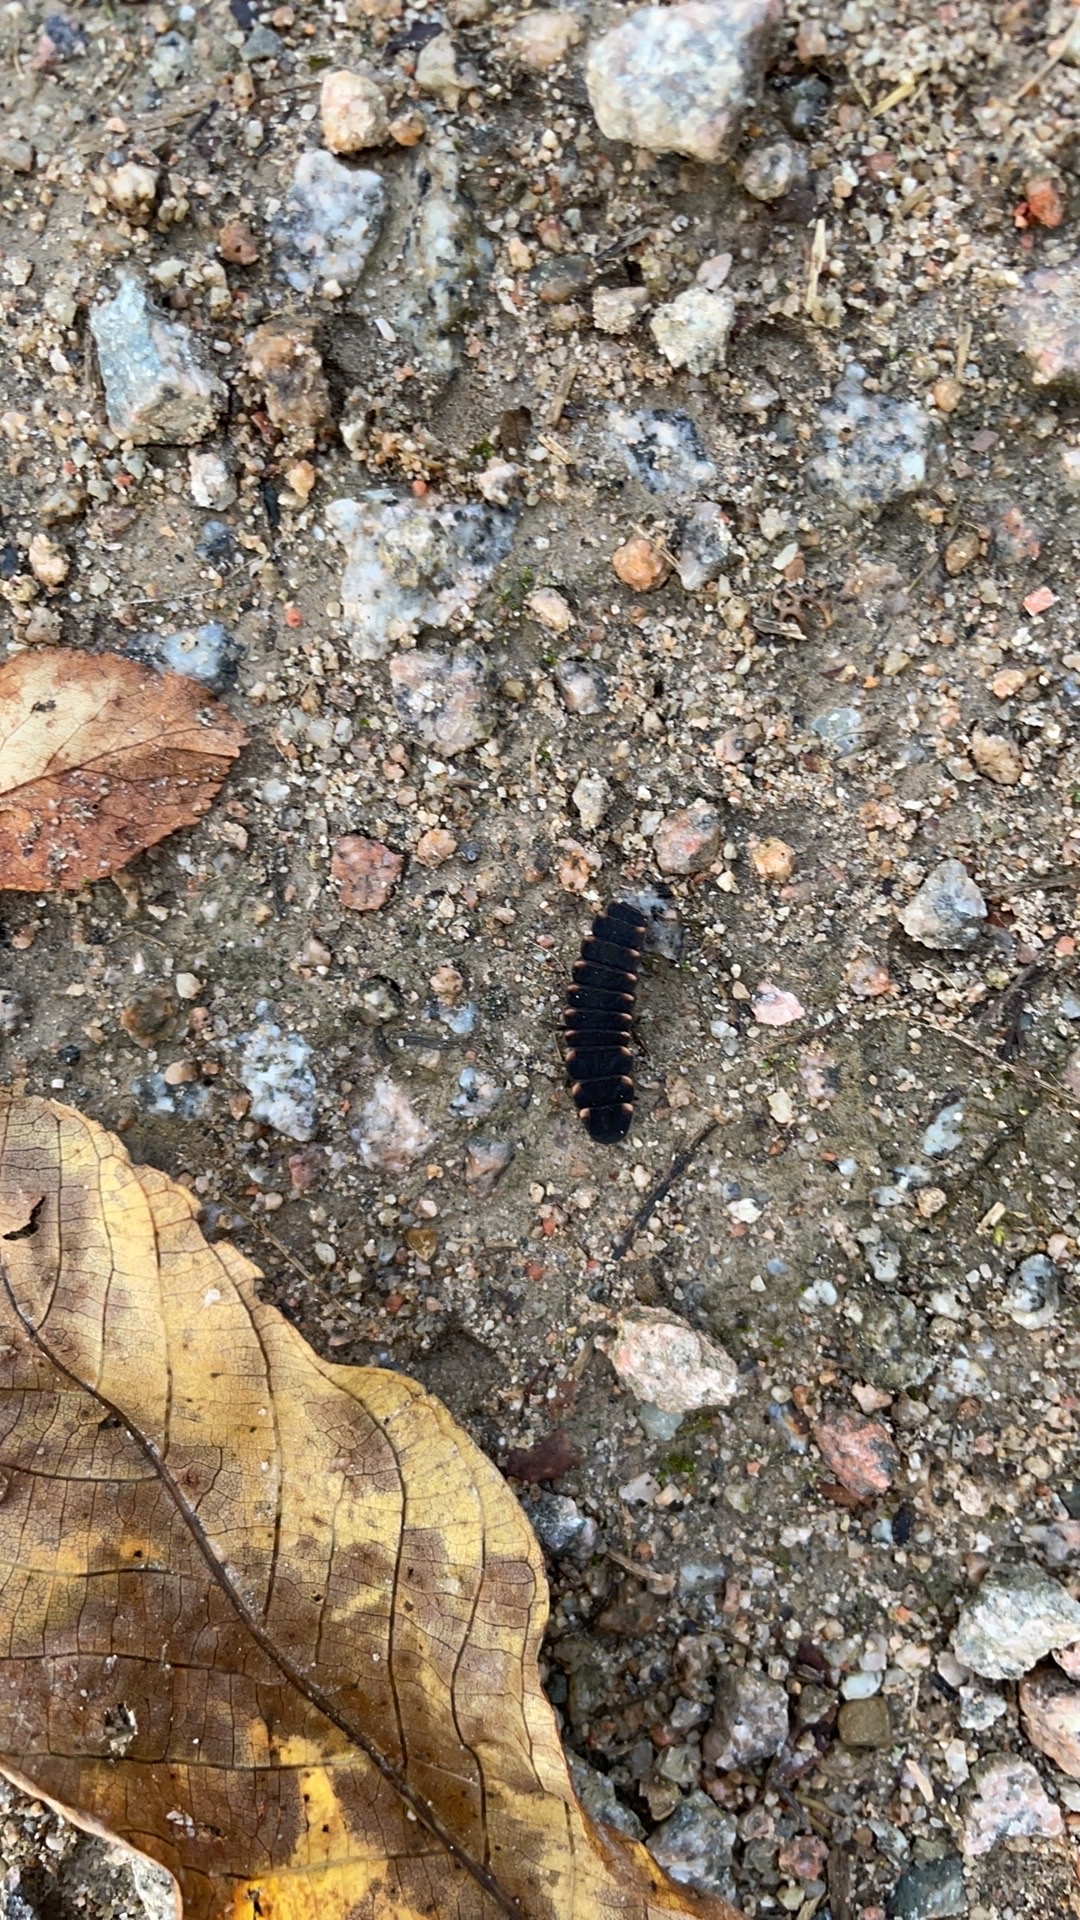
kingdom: Animalia
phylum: Arthropoda
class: Insecta
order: Coleoptera
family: Lampyridae
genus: Lampyris
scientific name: Lampyris noctiluca
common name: Glow-worm
